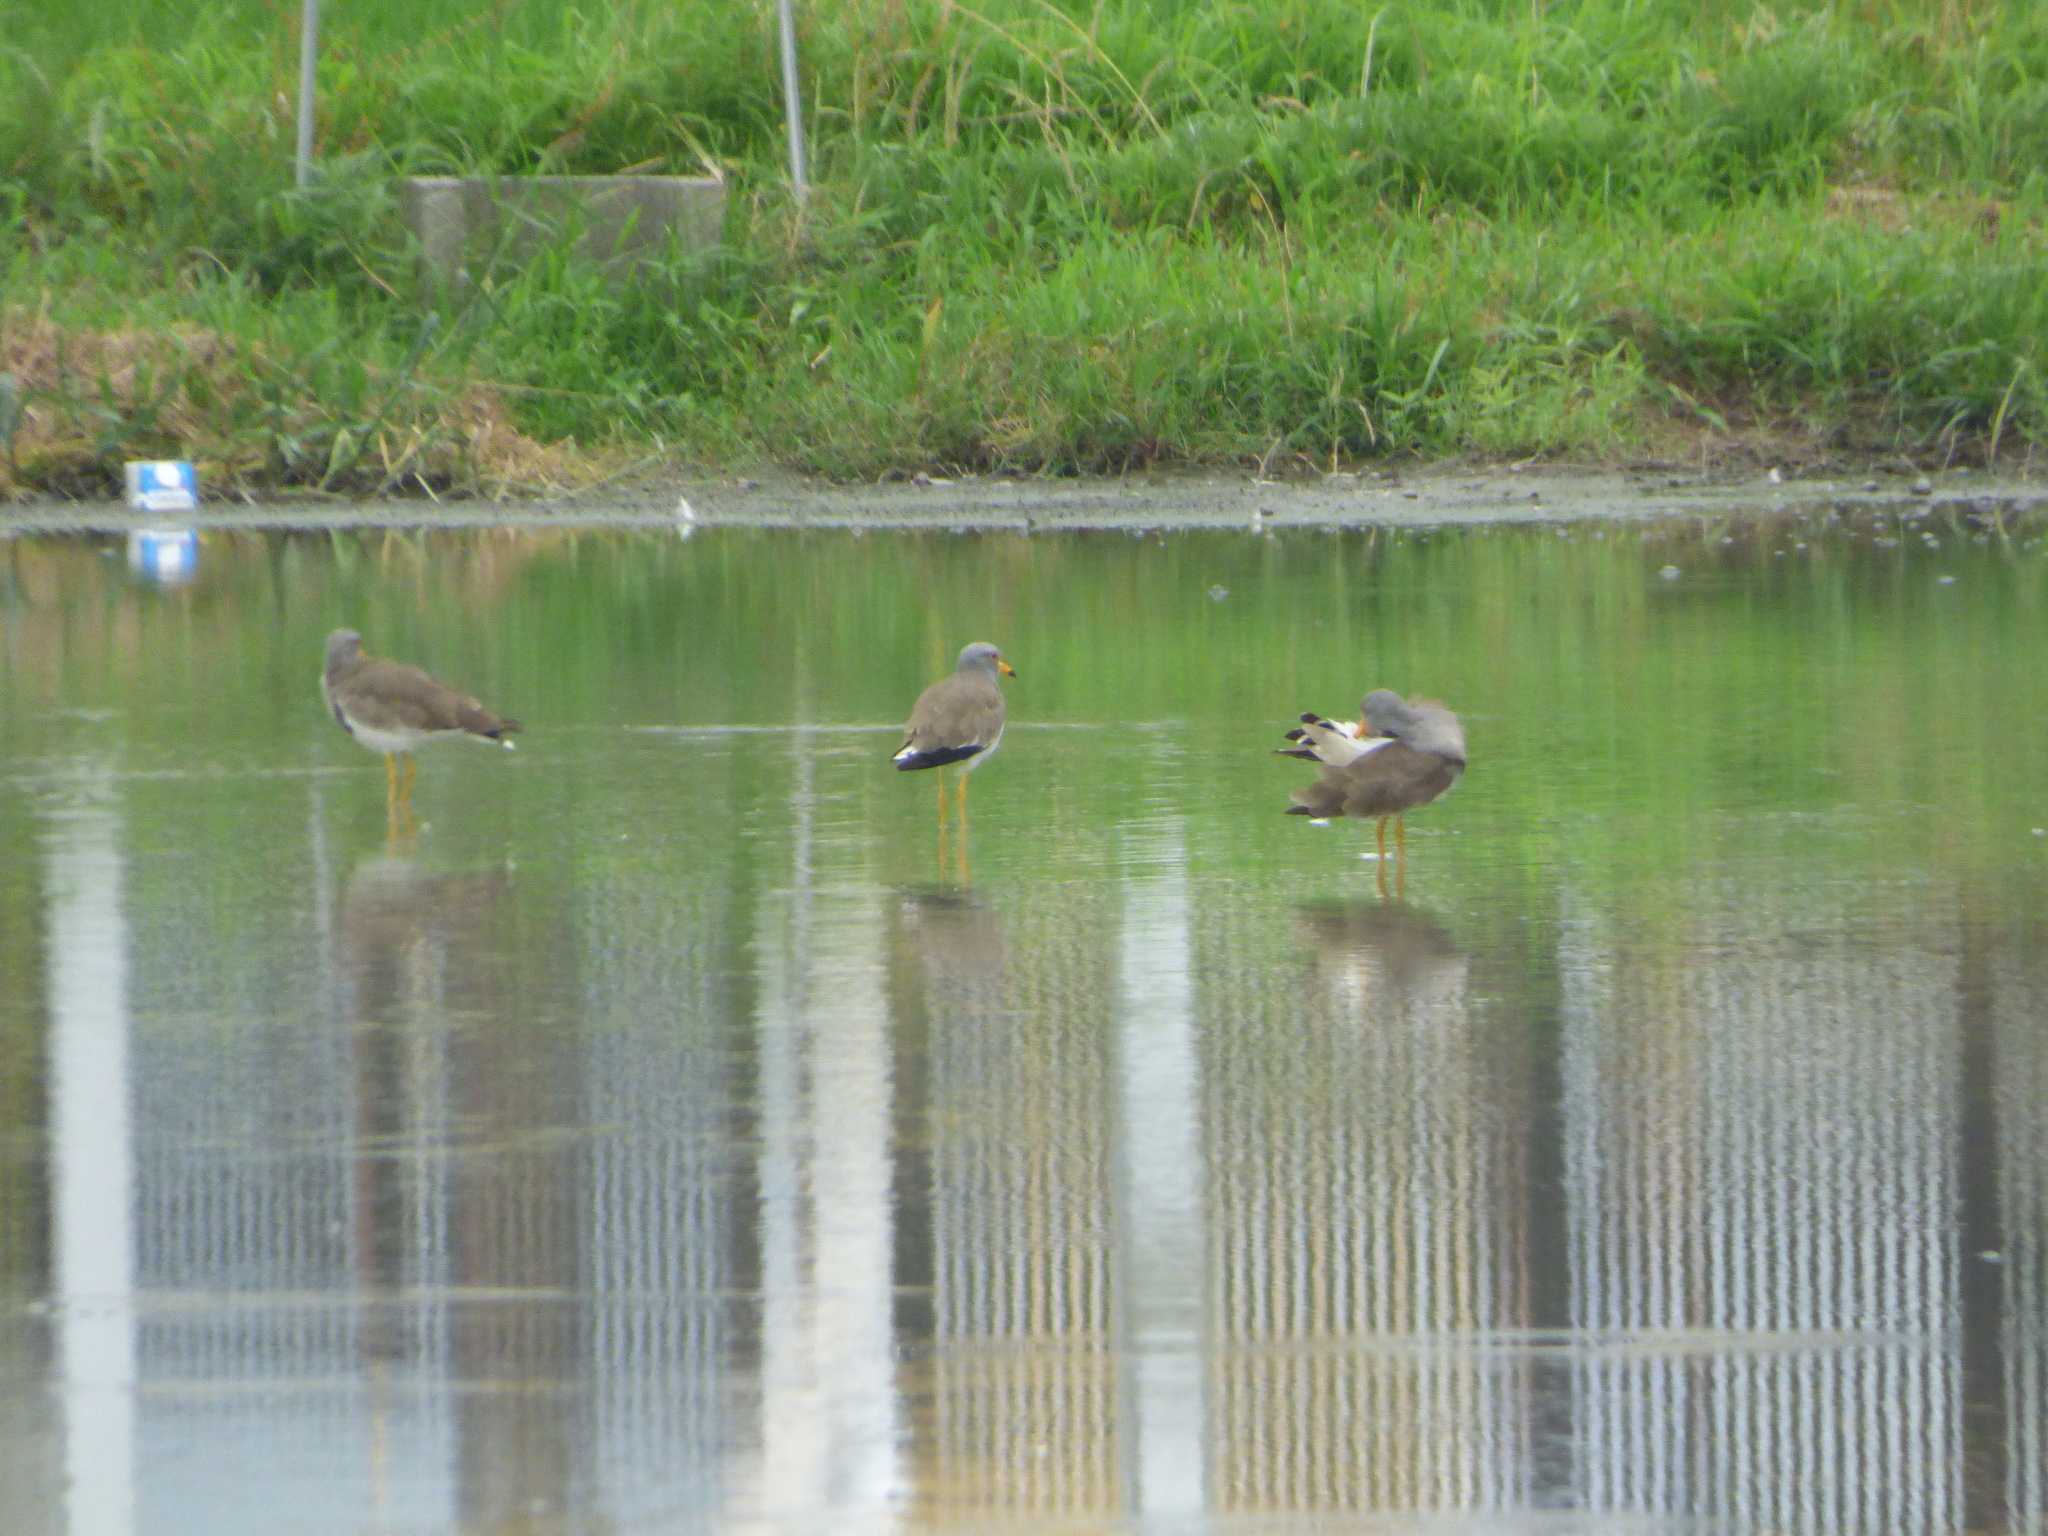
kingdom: Animalia
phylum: Chordata
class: Aves
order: Charadriiformes
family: Charadriidae
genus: Vanellus
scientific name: Vanellus cinereus
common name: Grey-headed lapwing
